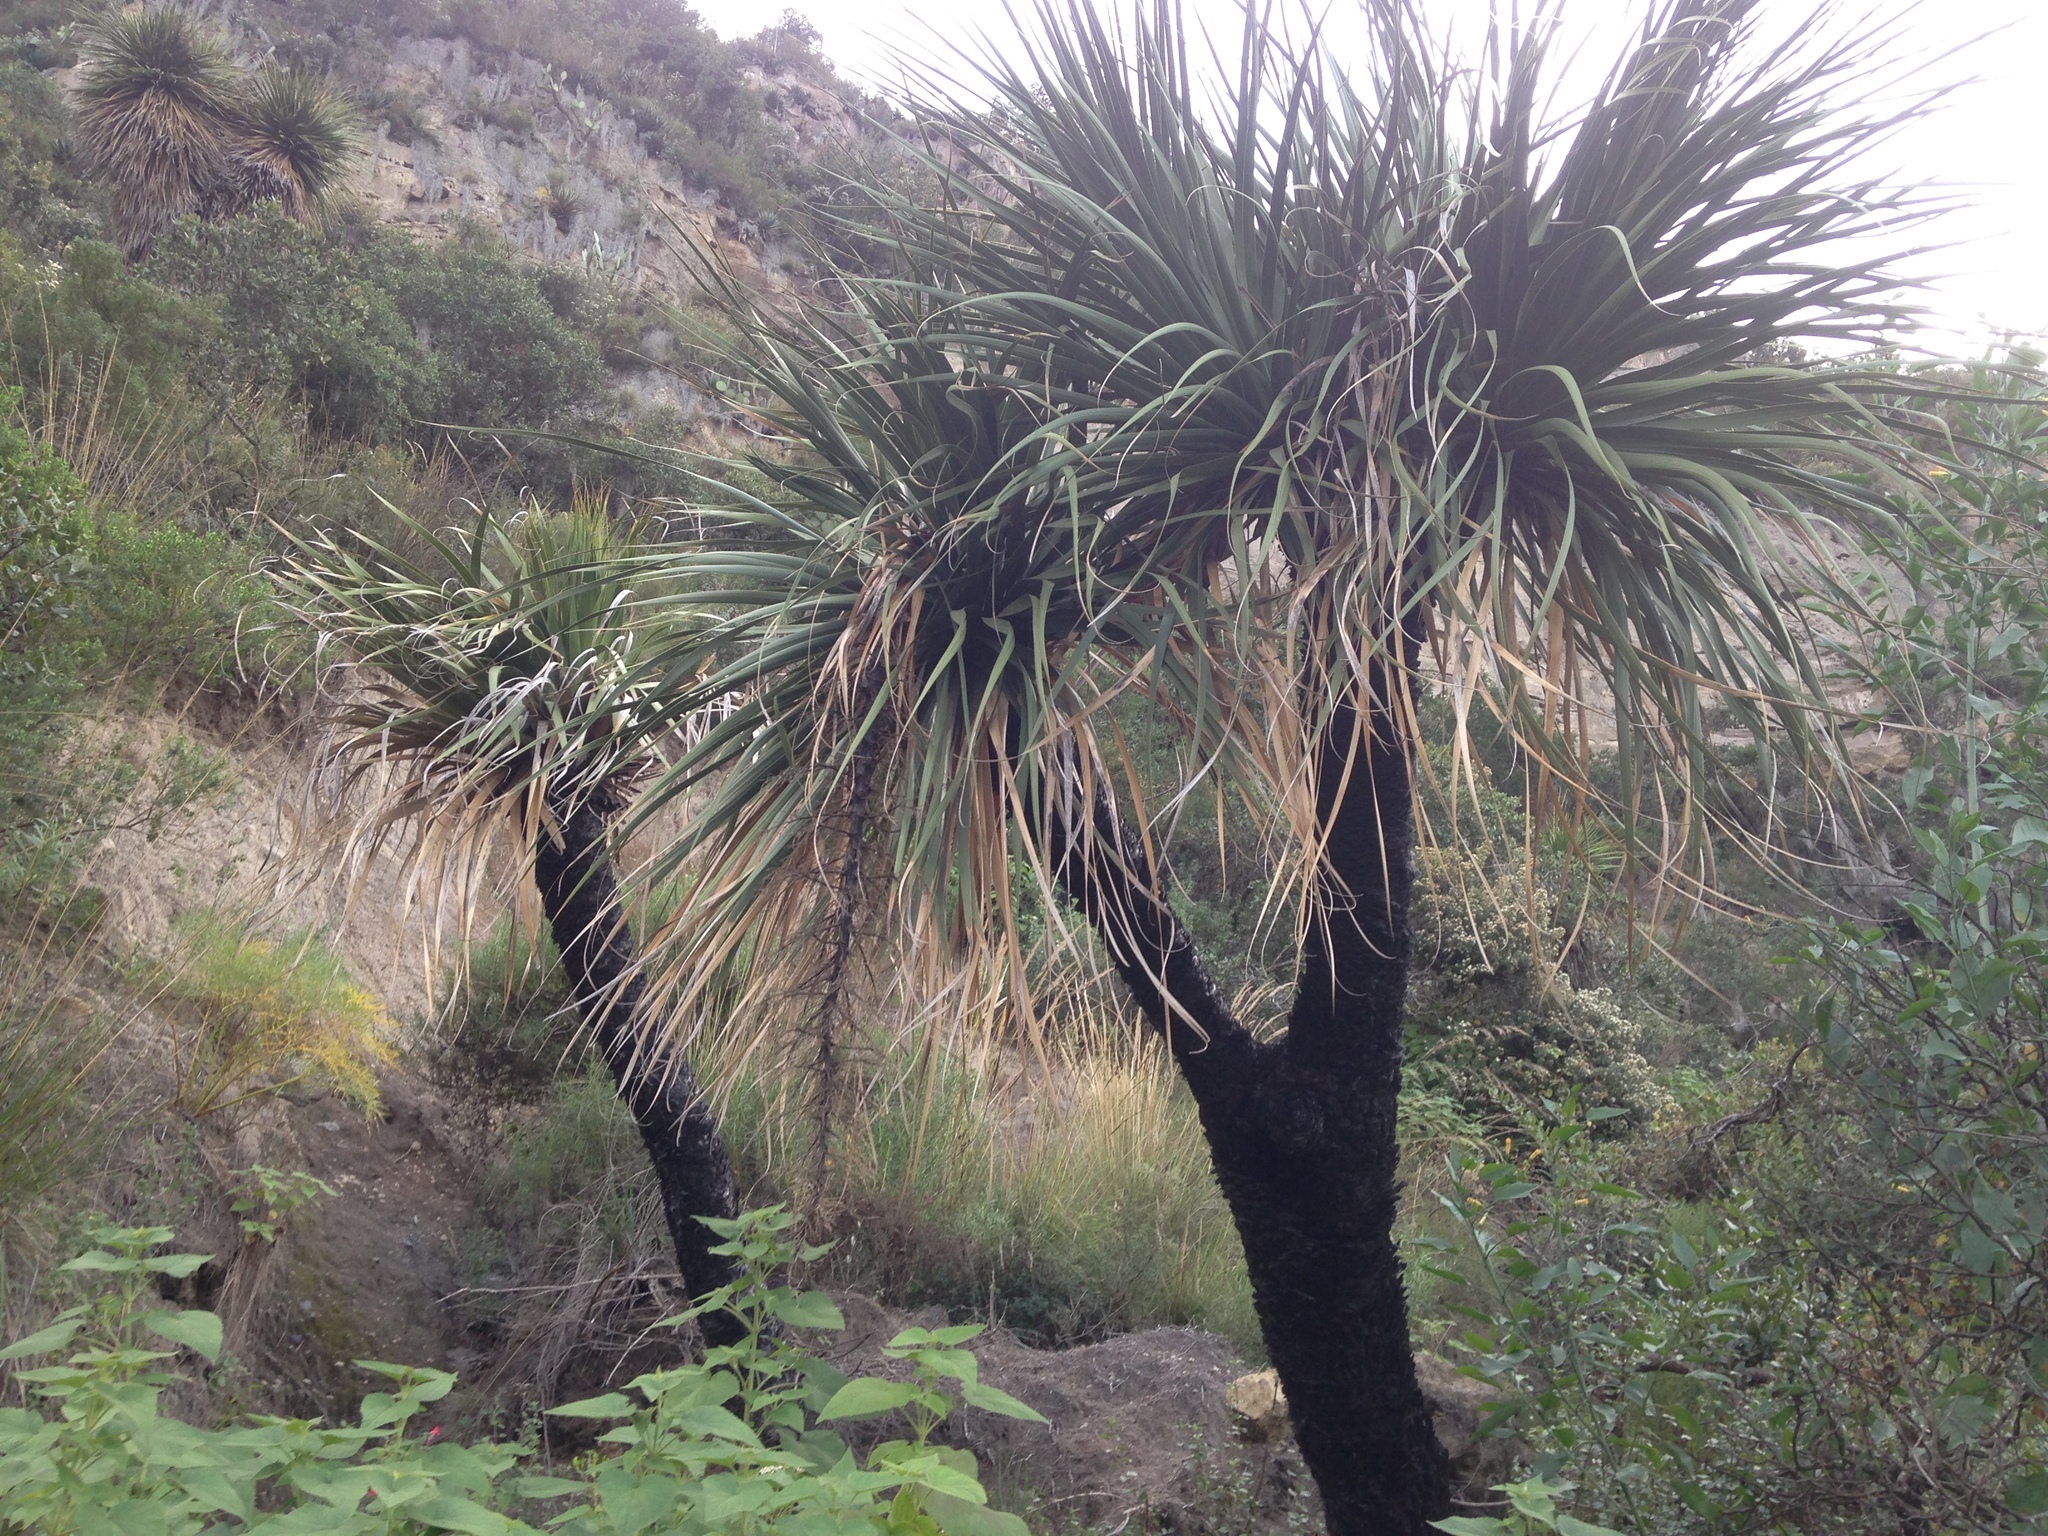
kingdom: Plantae
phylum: Tracheophyta
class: Liliopsida
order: Asparagales
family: Asparagaceae
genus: Nolina
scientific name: Nolina parviflora
